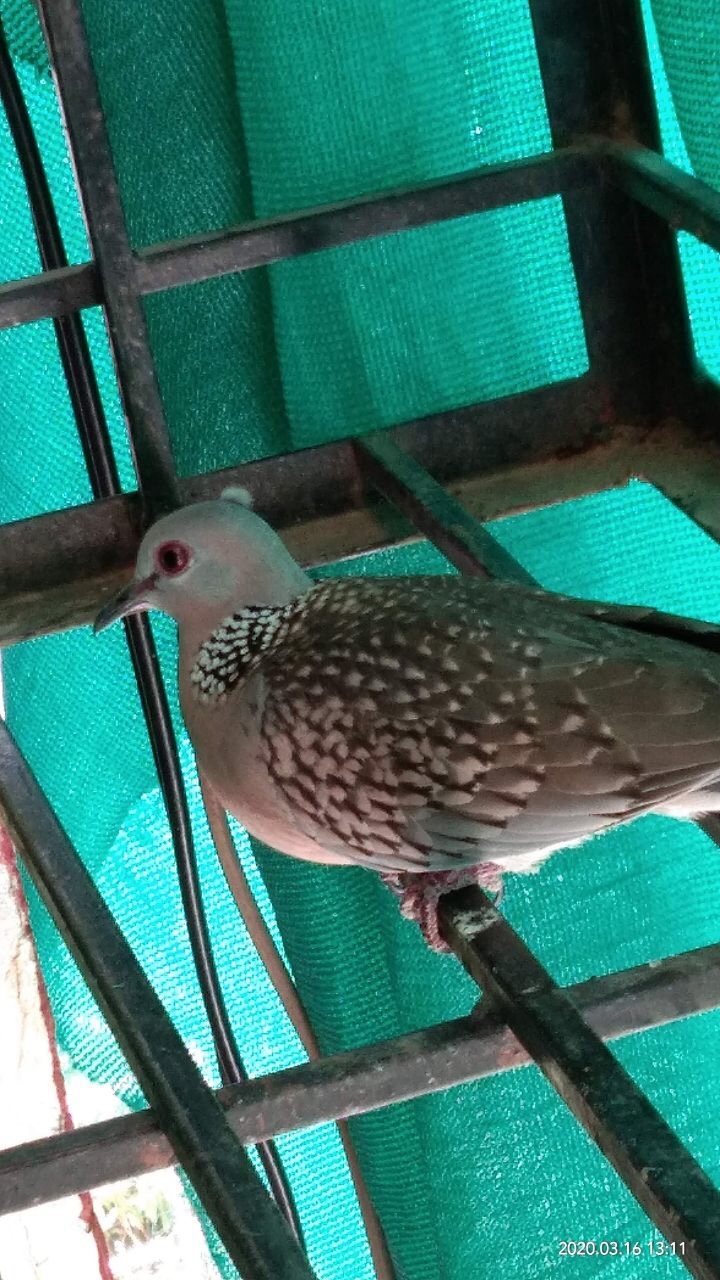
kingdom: Animalia
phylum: Chordata
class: Aves
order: Columbiformes
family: Columbidae
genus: Spilopelia
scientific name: Spilopelia chinensis
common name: Spotted dove
